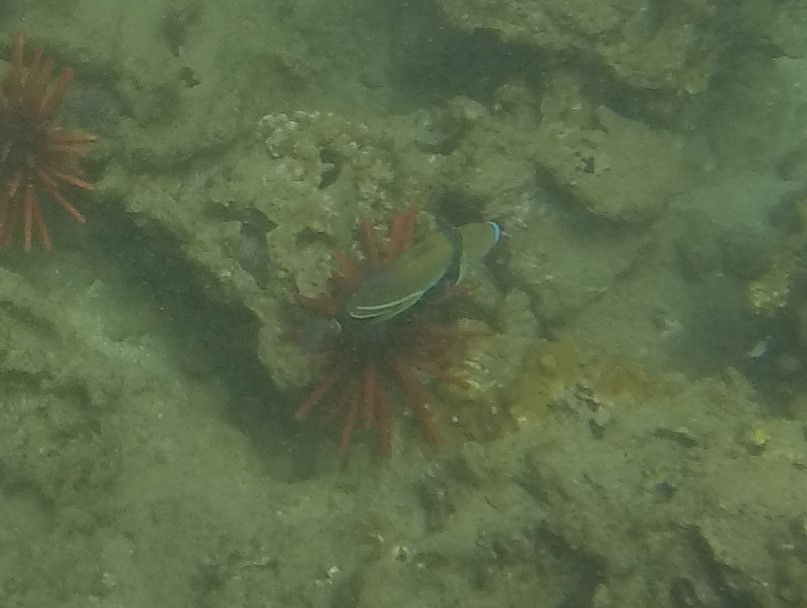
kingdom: Animalia
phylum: Chordata
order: Tetraodontiformes
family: Balistidae
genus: Rhinecanthus
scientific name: Rhinecanthus rectangulus
